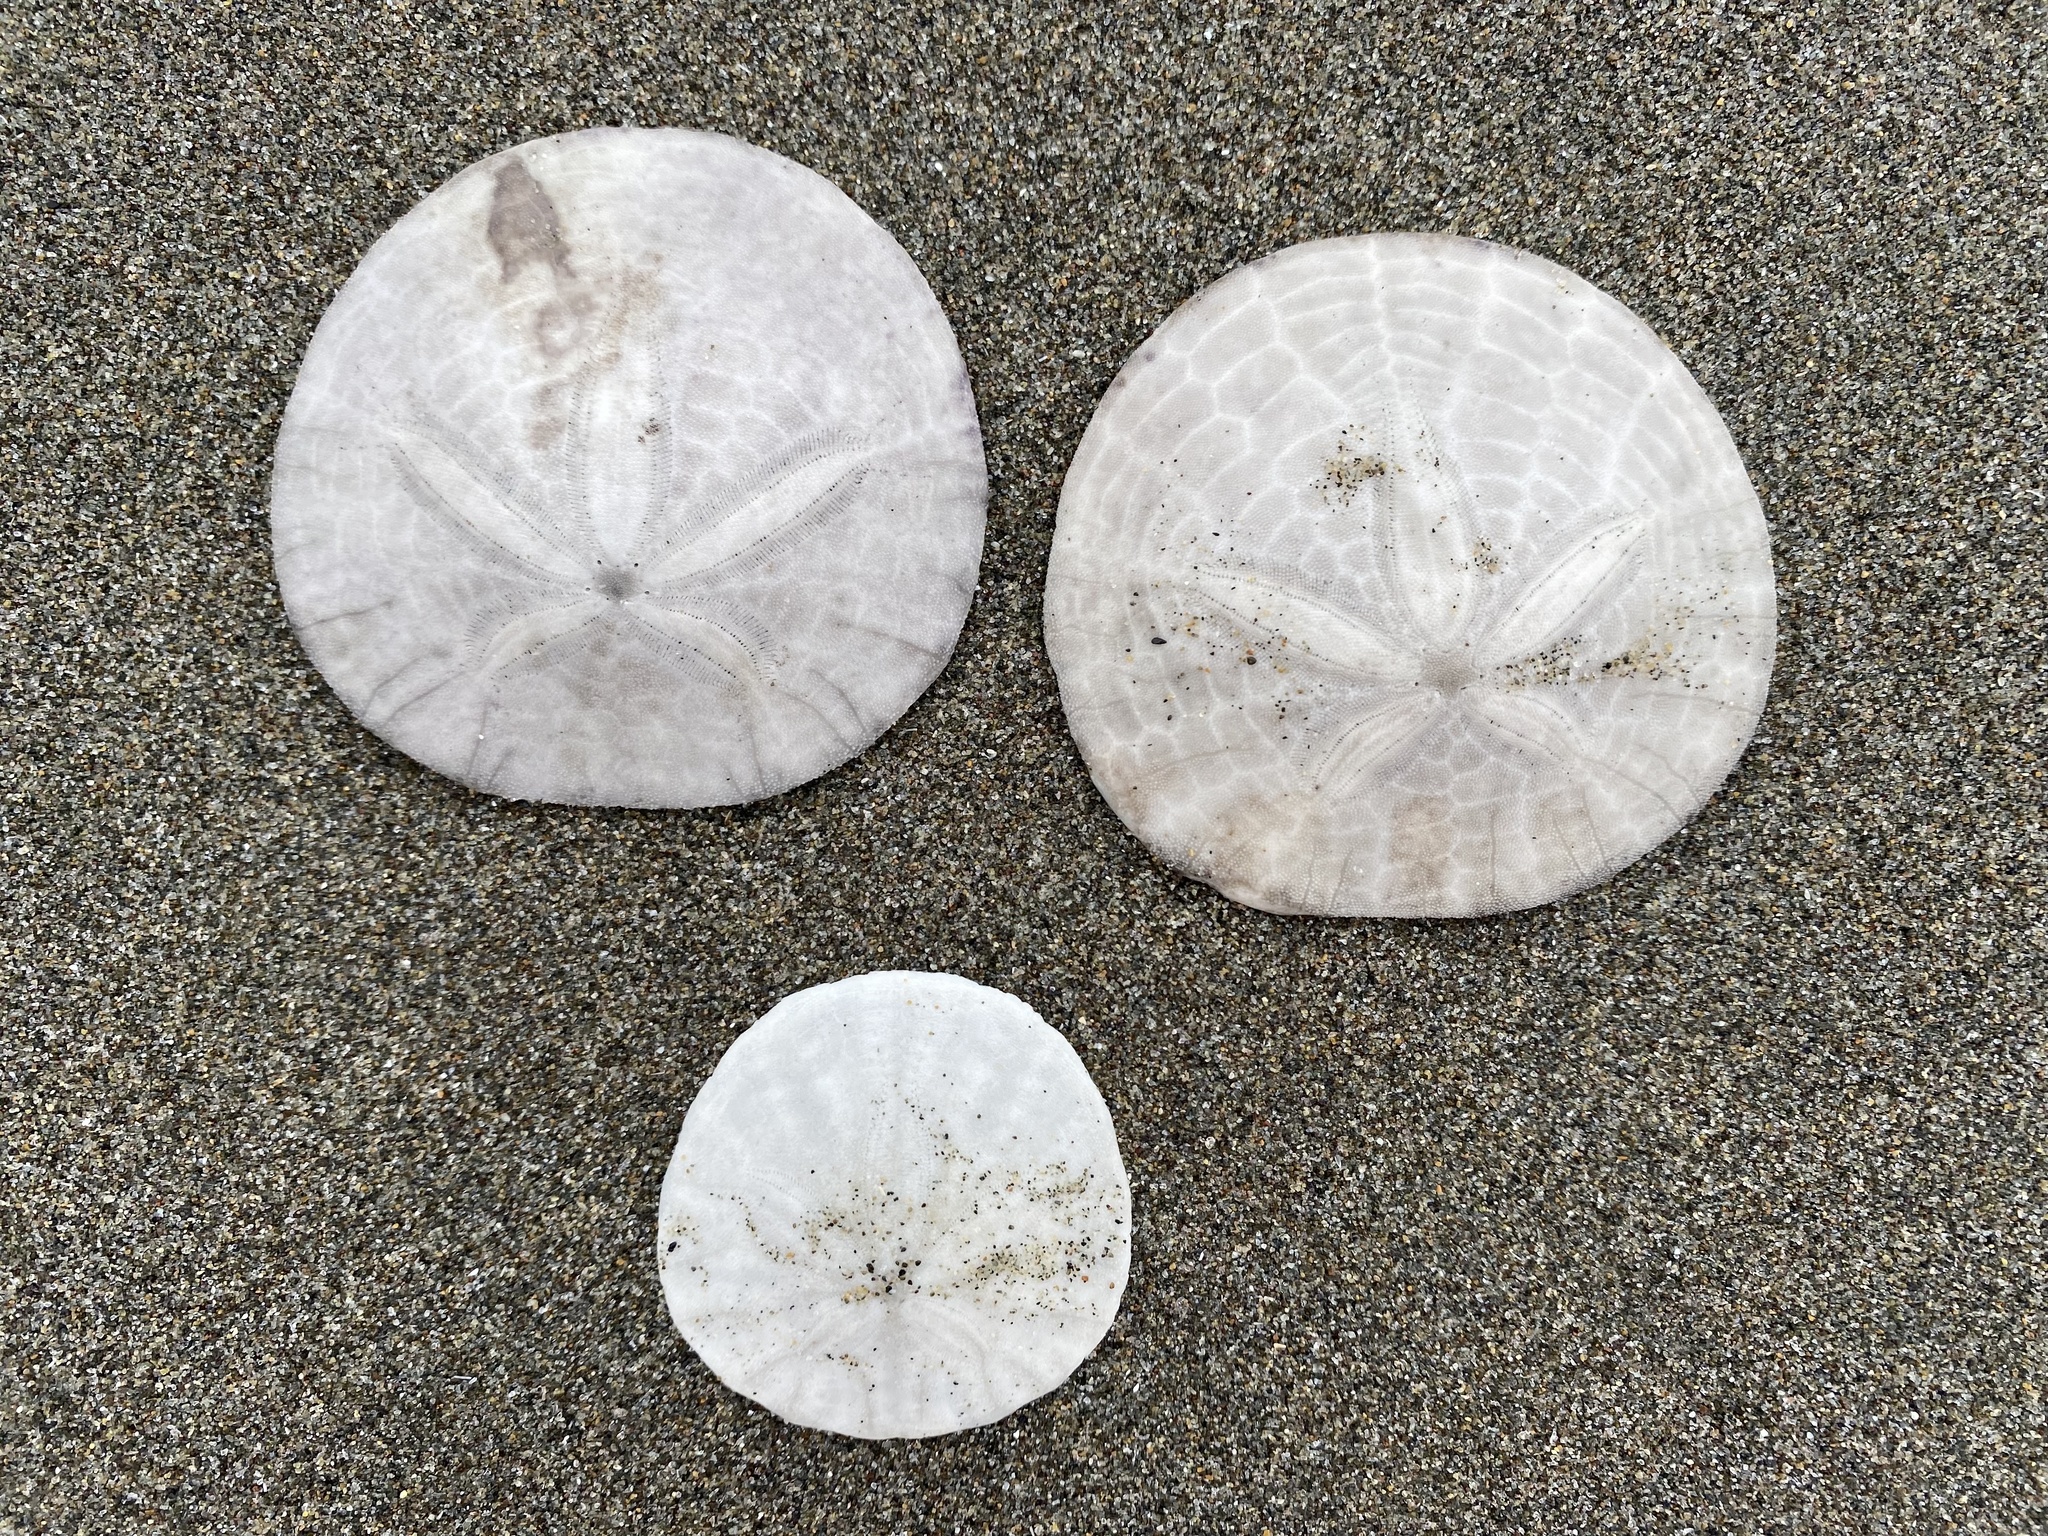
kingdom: Animalia
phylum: Echinodermata
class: Echinoidea
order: Echinolampadacea
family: Dendrasteridae
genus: Dendraster
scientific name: Dendraster excentricus
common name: Eccentric sand dollar sea urchin
